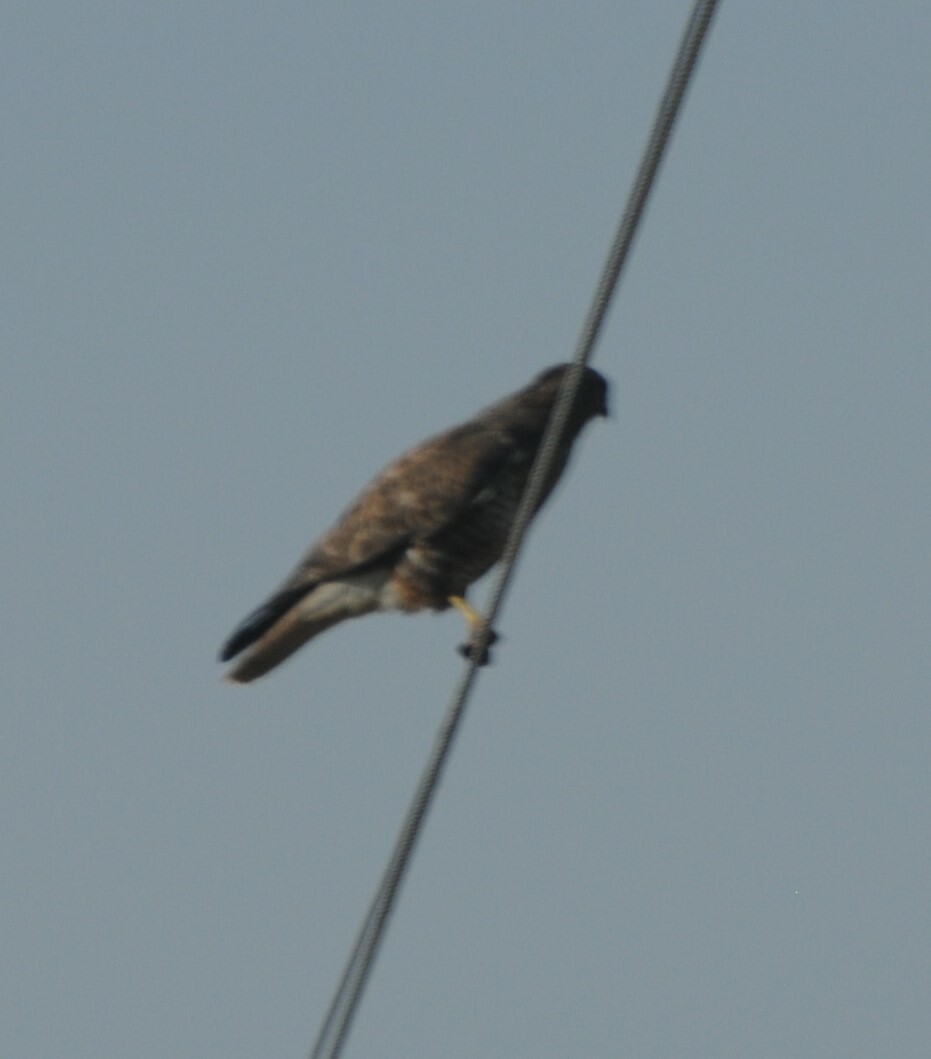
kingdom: Animalia
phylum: Chordata
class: Aves
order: Accipitriformes
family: Accipitridae
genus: Buteo
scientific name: Buteo buteo
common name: Common buzzard
